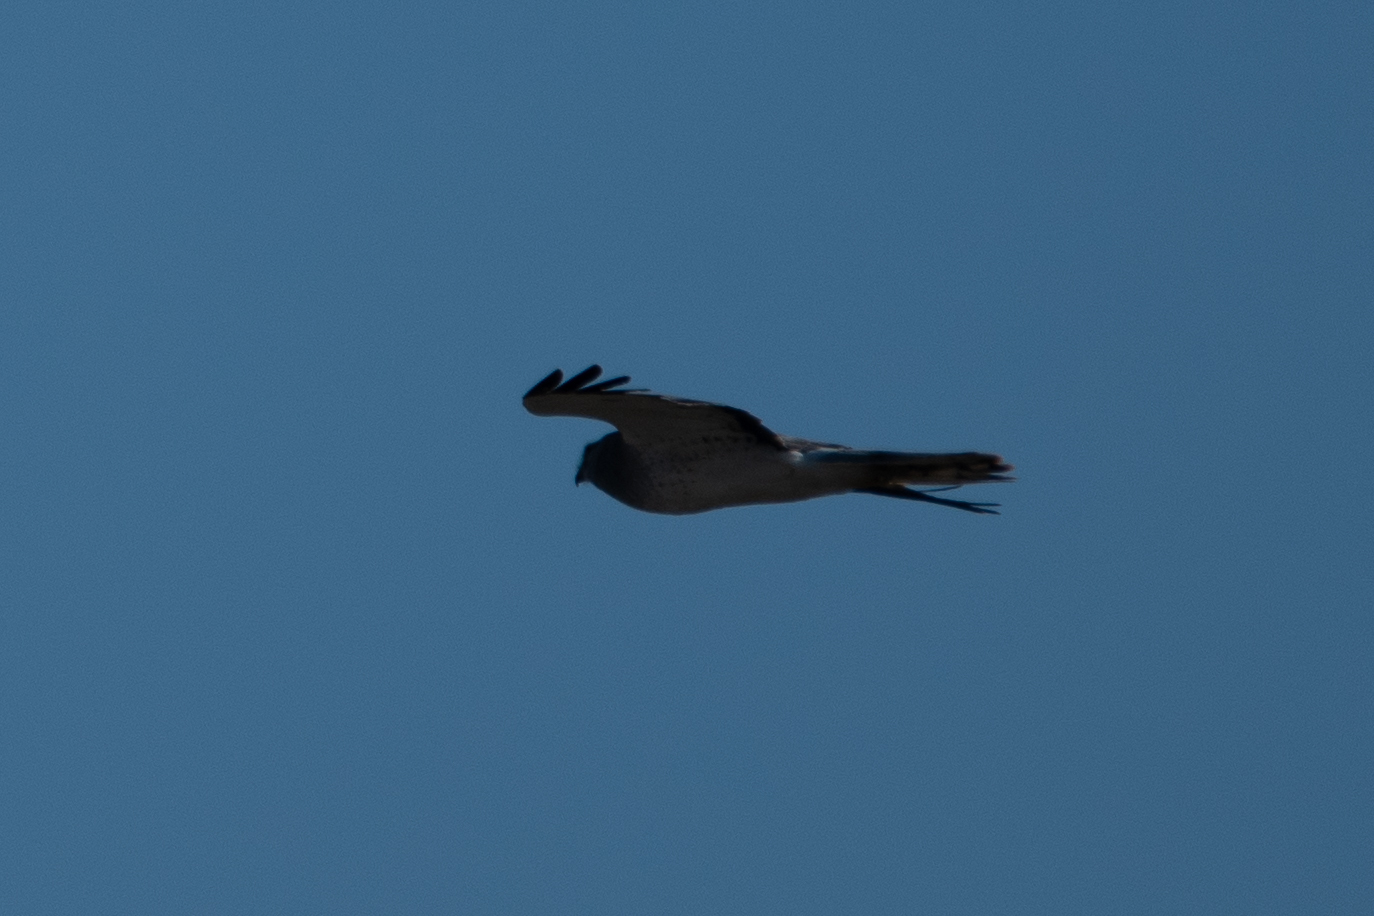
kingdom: Animalia
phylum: Chordata
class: Aves
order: Accipitriformes
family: Accipitridae
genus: Circus
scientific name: Circus cyaneus
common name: Hen harrier
